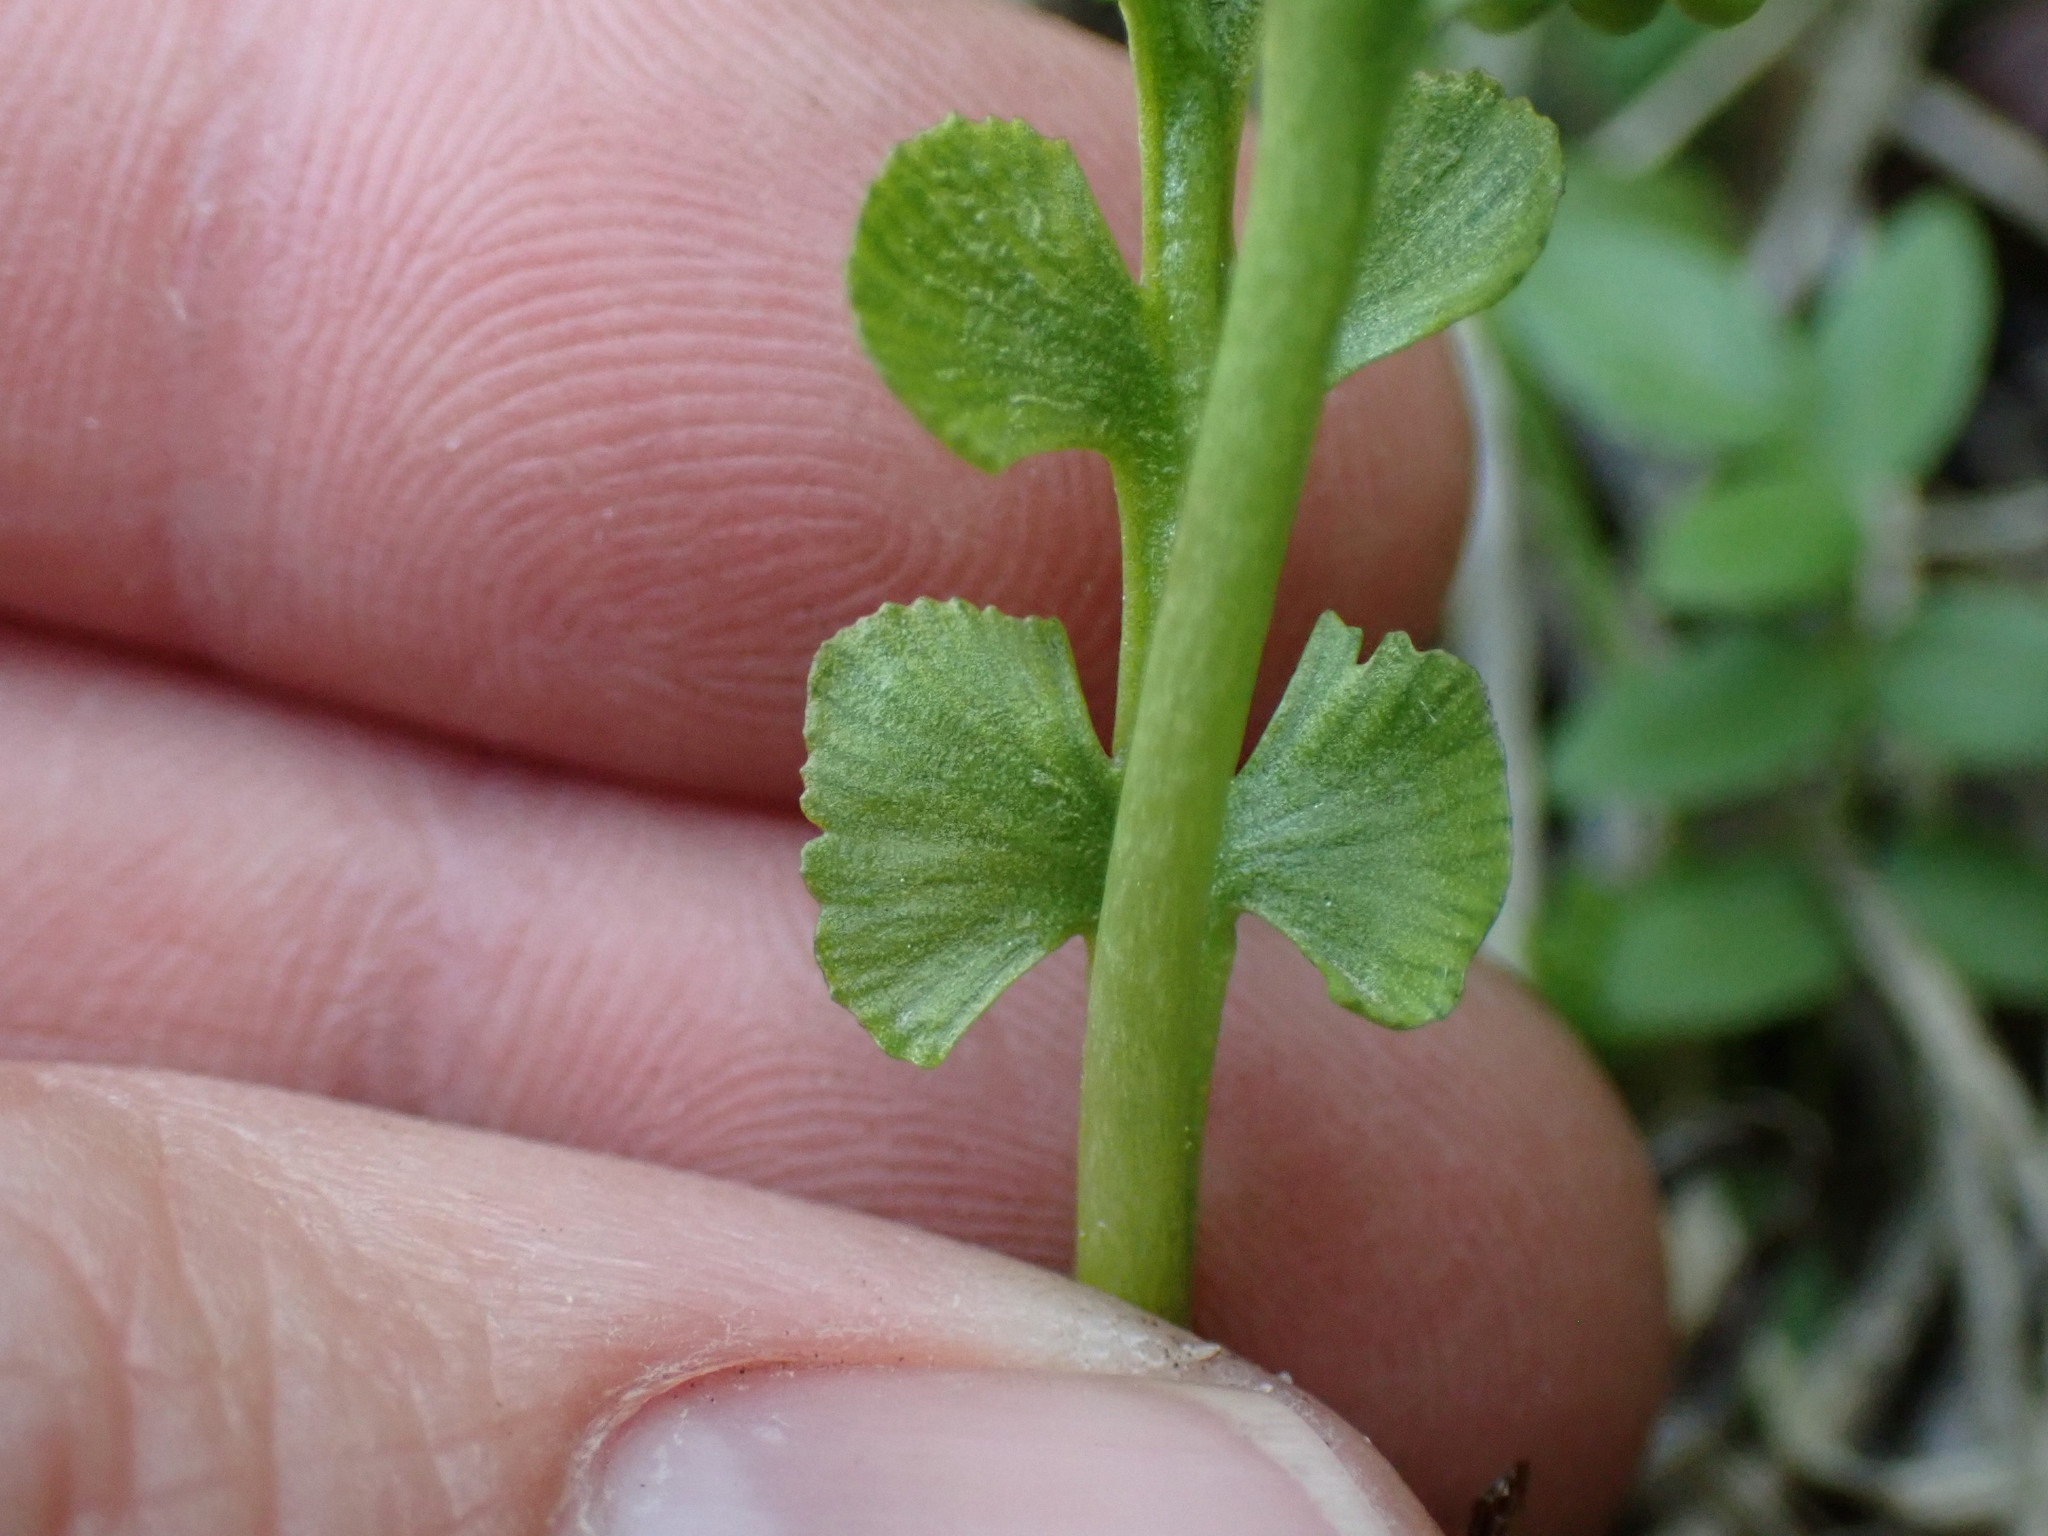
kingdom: Plantae
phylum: Tracheophyta
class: Polypodiopsida
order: Ophioglossales
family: Ophioglossaceae
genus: Botrychium
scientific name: Botrychium crenulatum
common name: Crenulate moonwort
